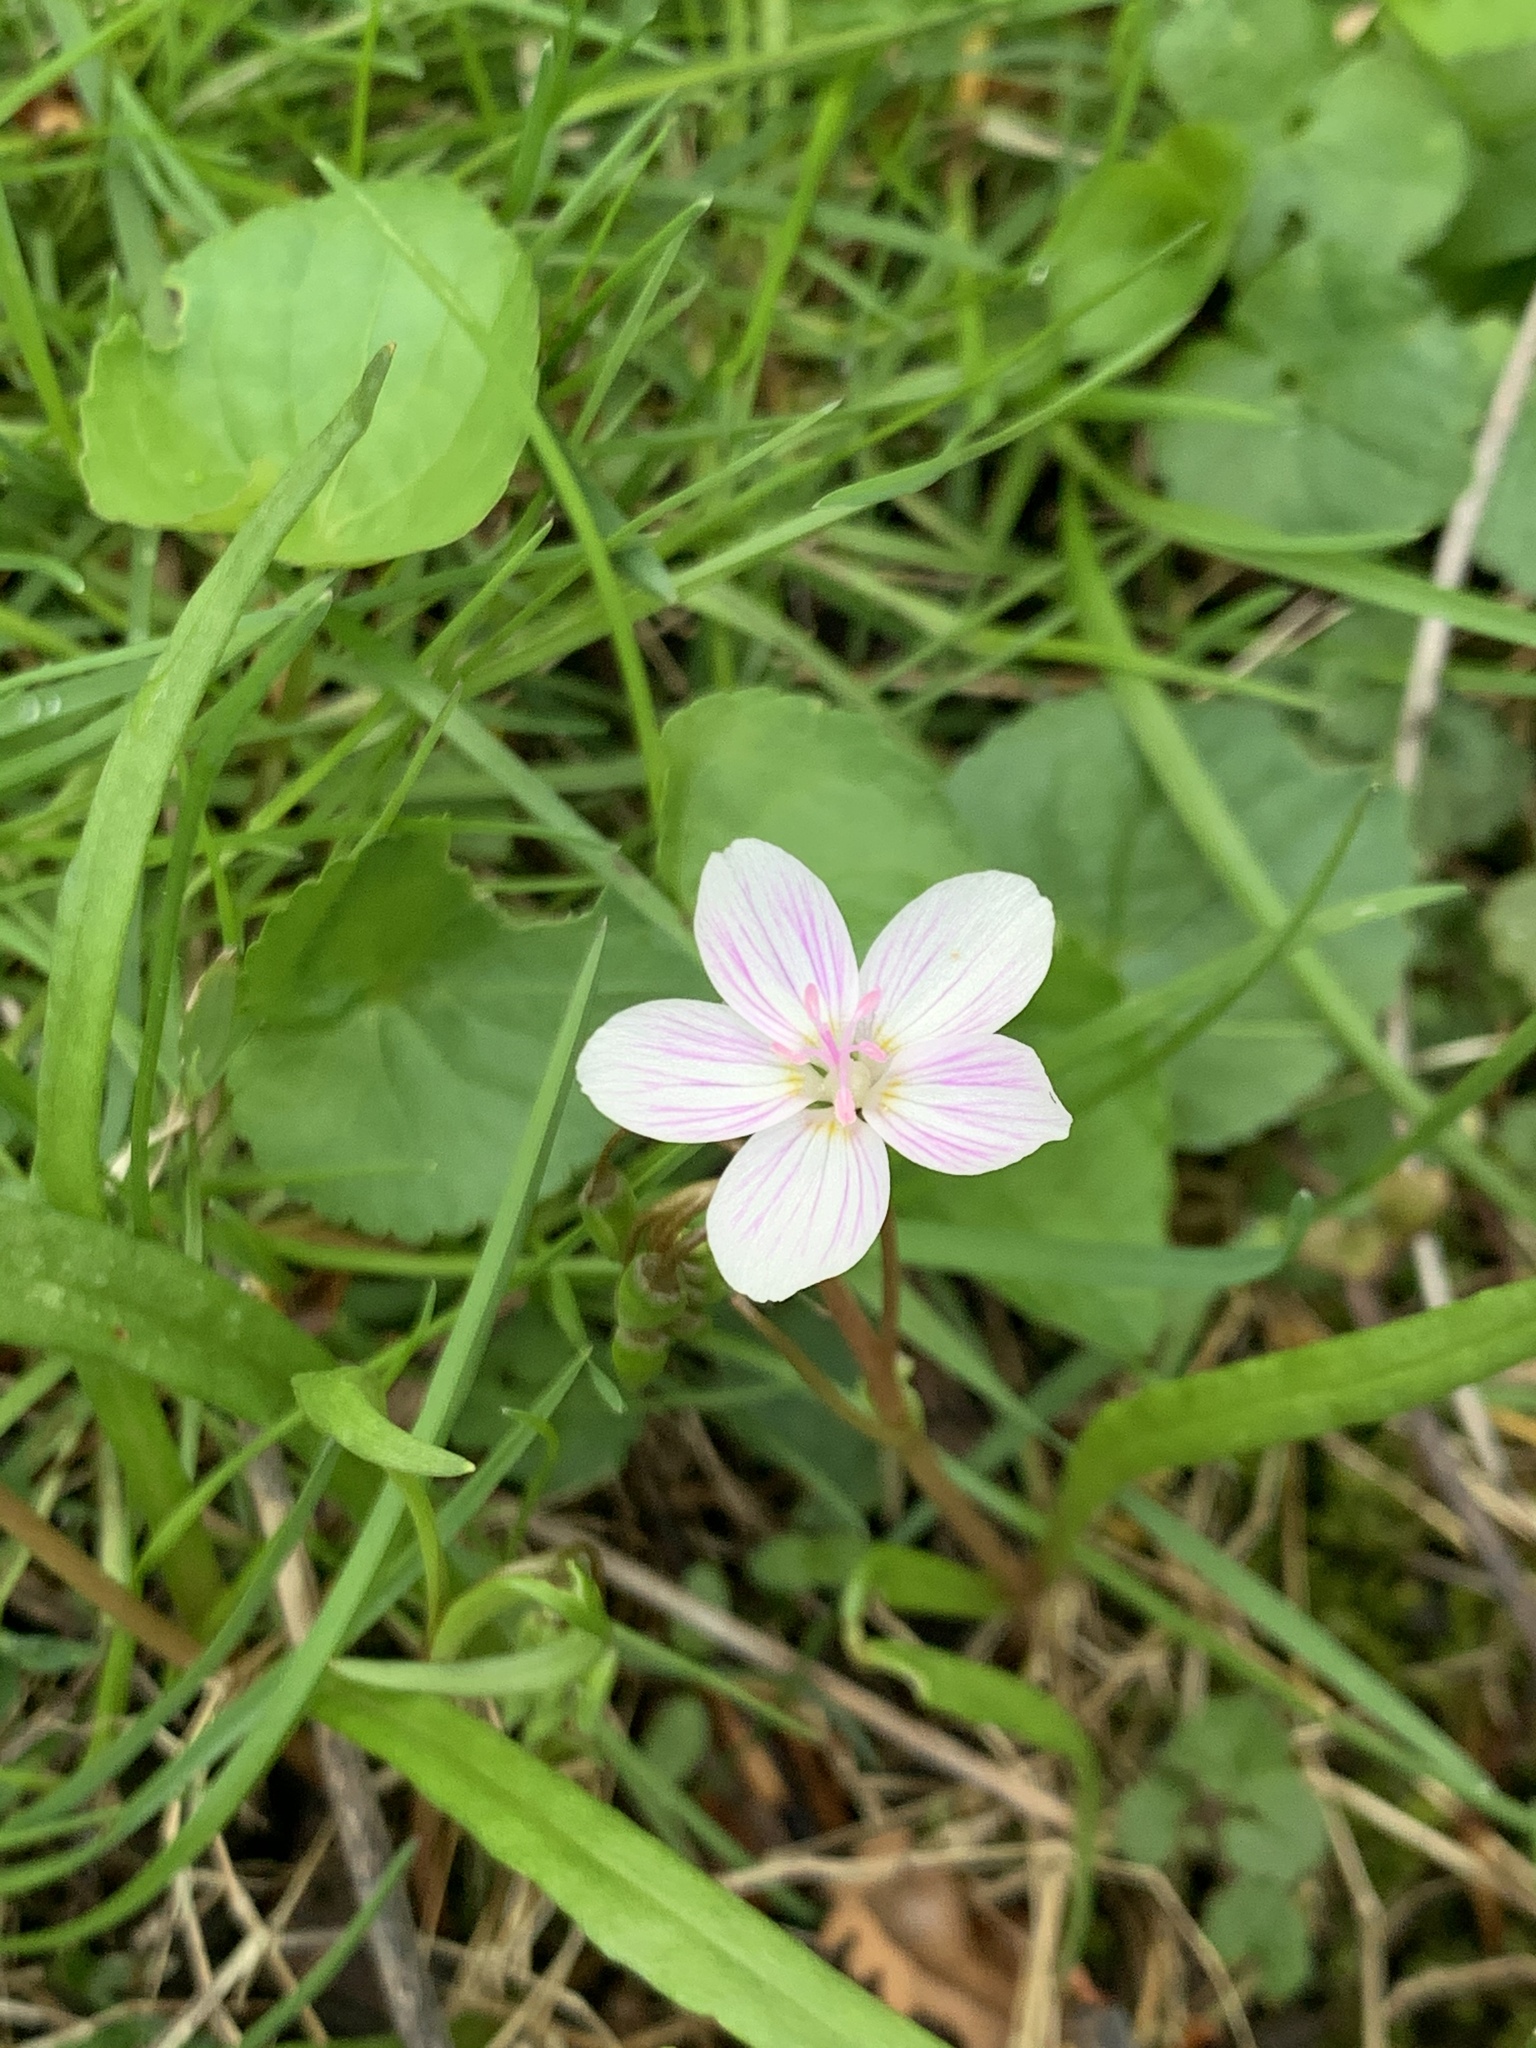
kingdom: Plantae
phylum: Tracheophyta
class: Magnoliopsida
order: Caryophyllales
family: Montiaceae
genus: Claytonia
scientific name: Claytonia virginica
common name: Virginia springbeauty
